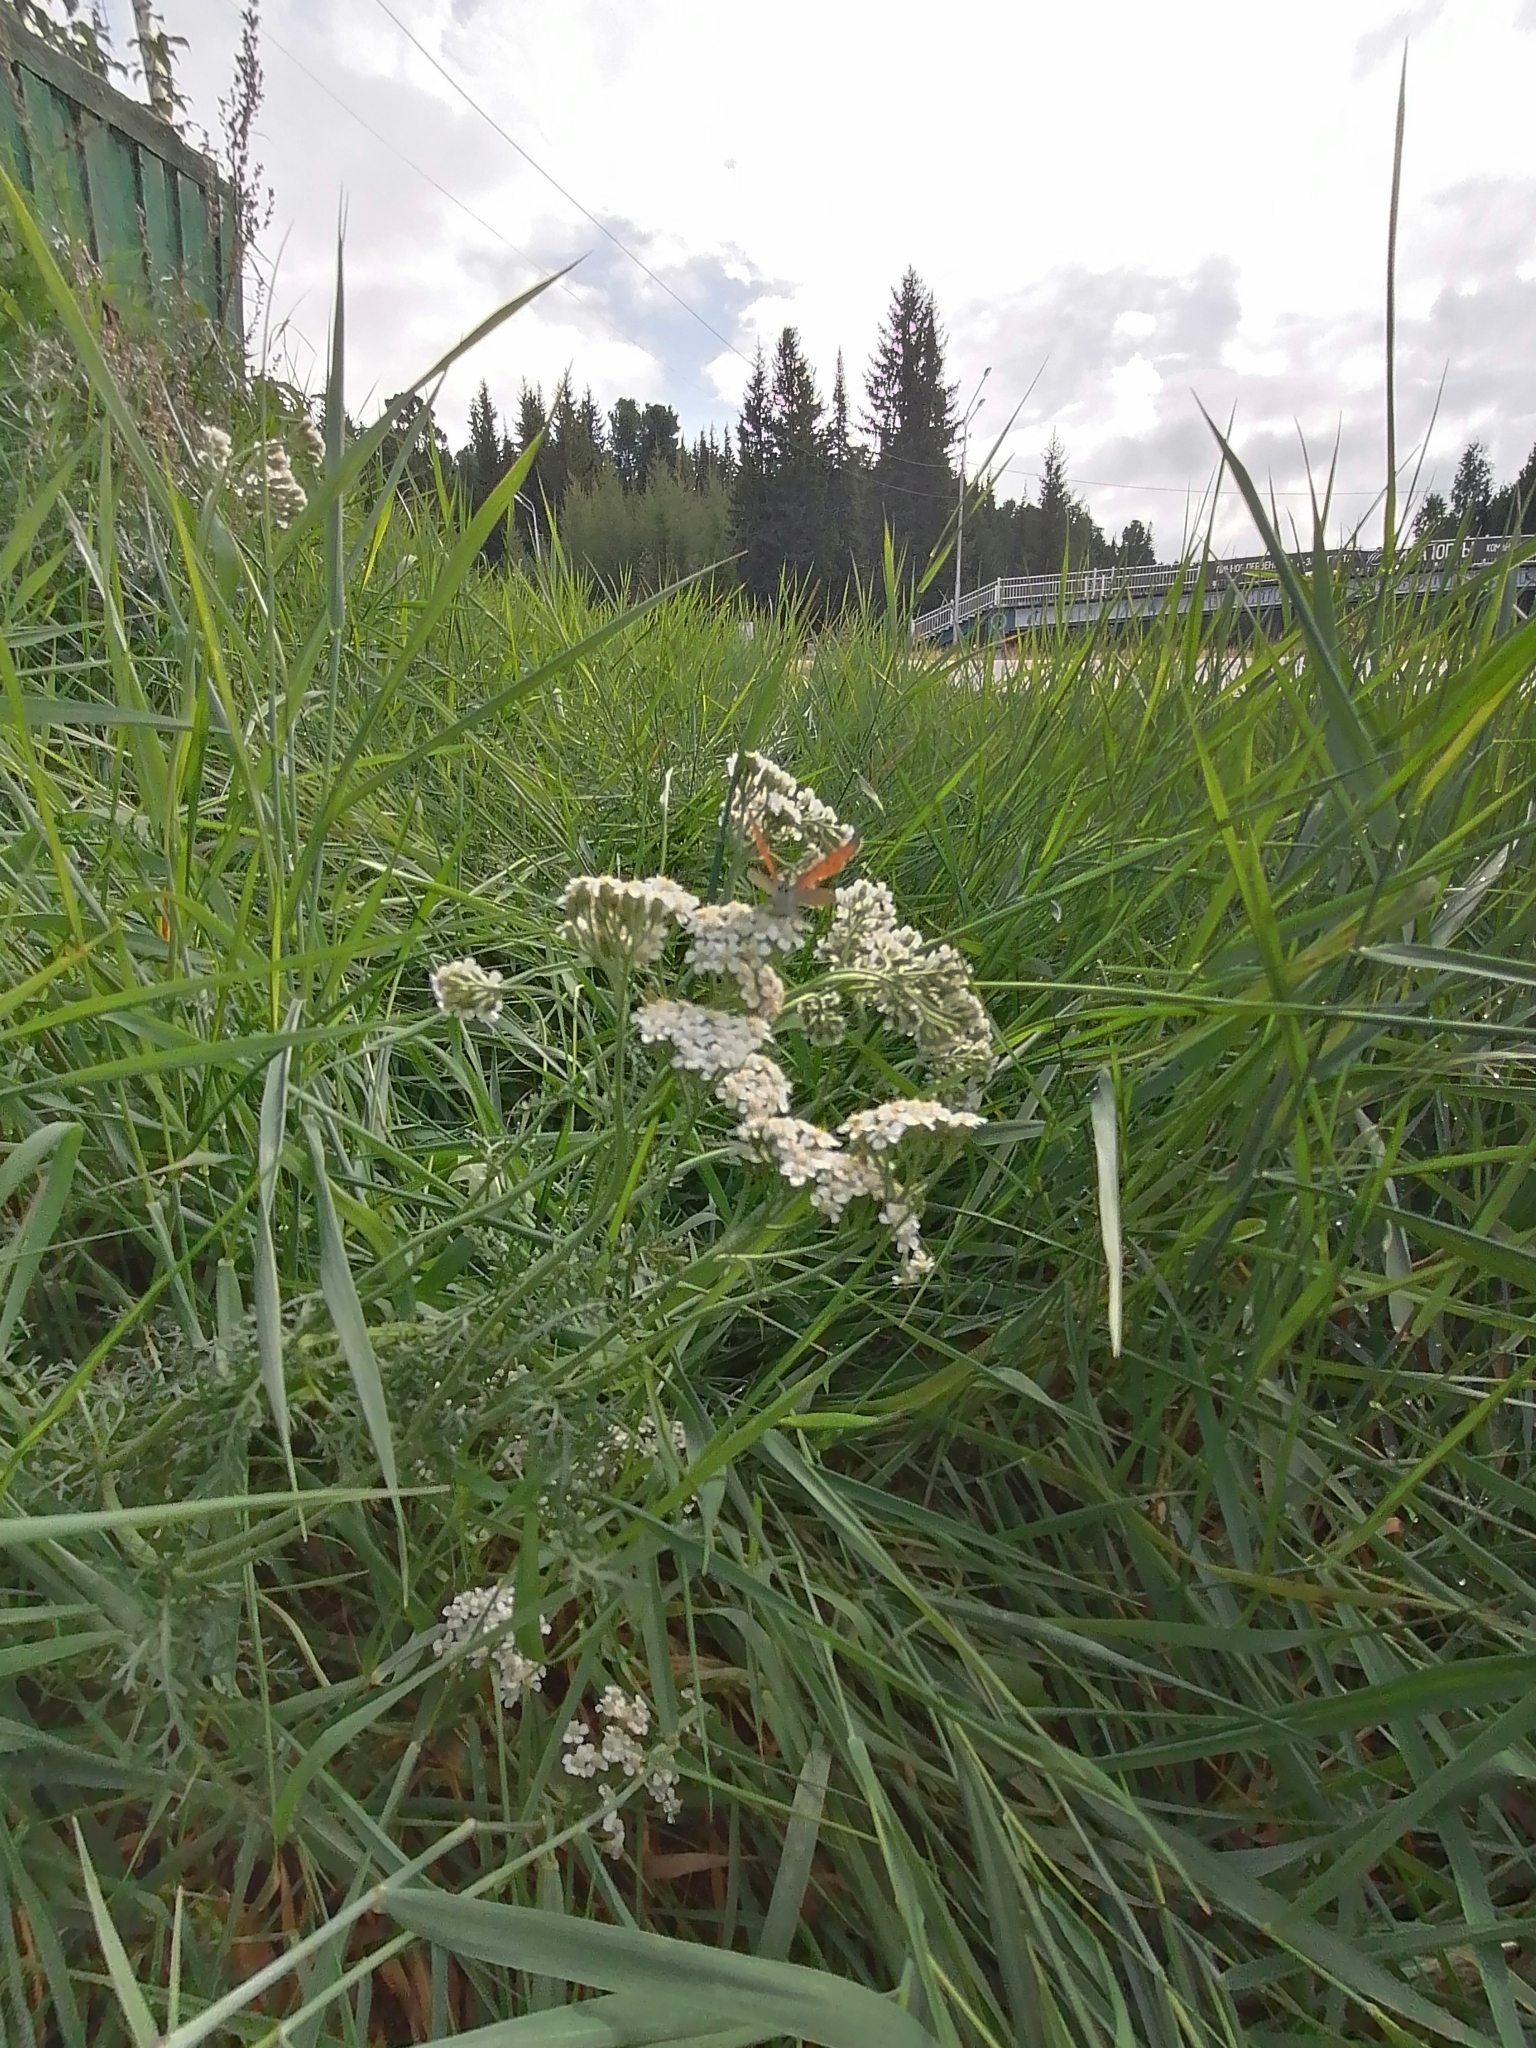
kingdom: Plantae
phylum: Tracheophyta
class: Magnoliopsida
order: Asterales
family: Asteraceae
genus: Achillea
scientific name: Achillea millefolium
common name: Yarrow
